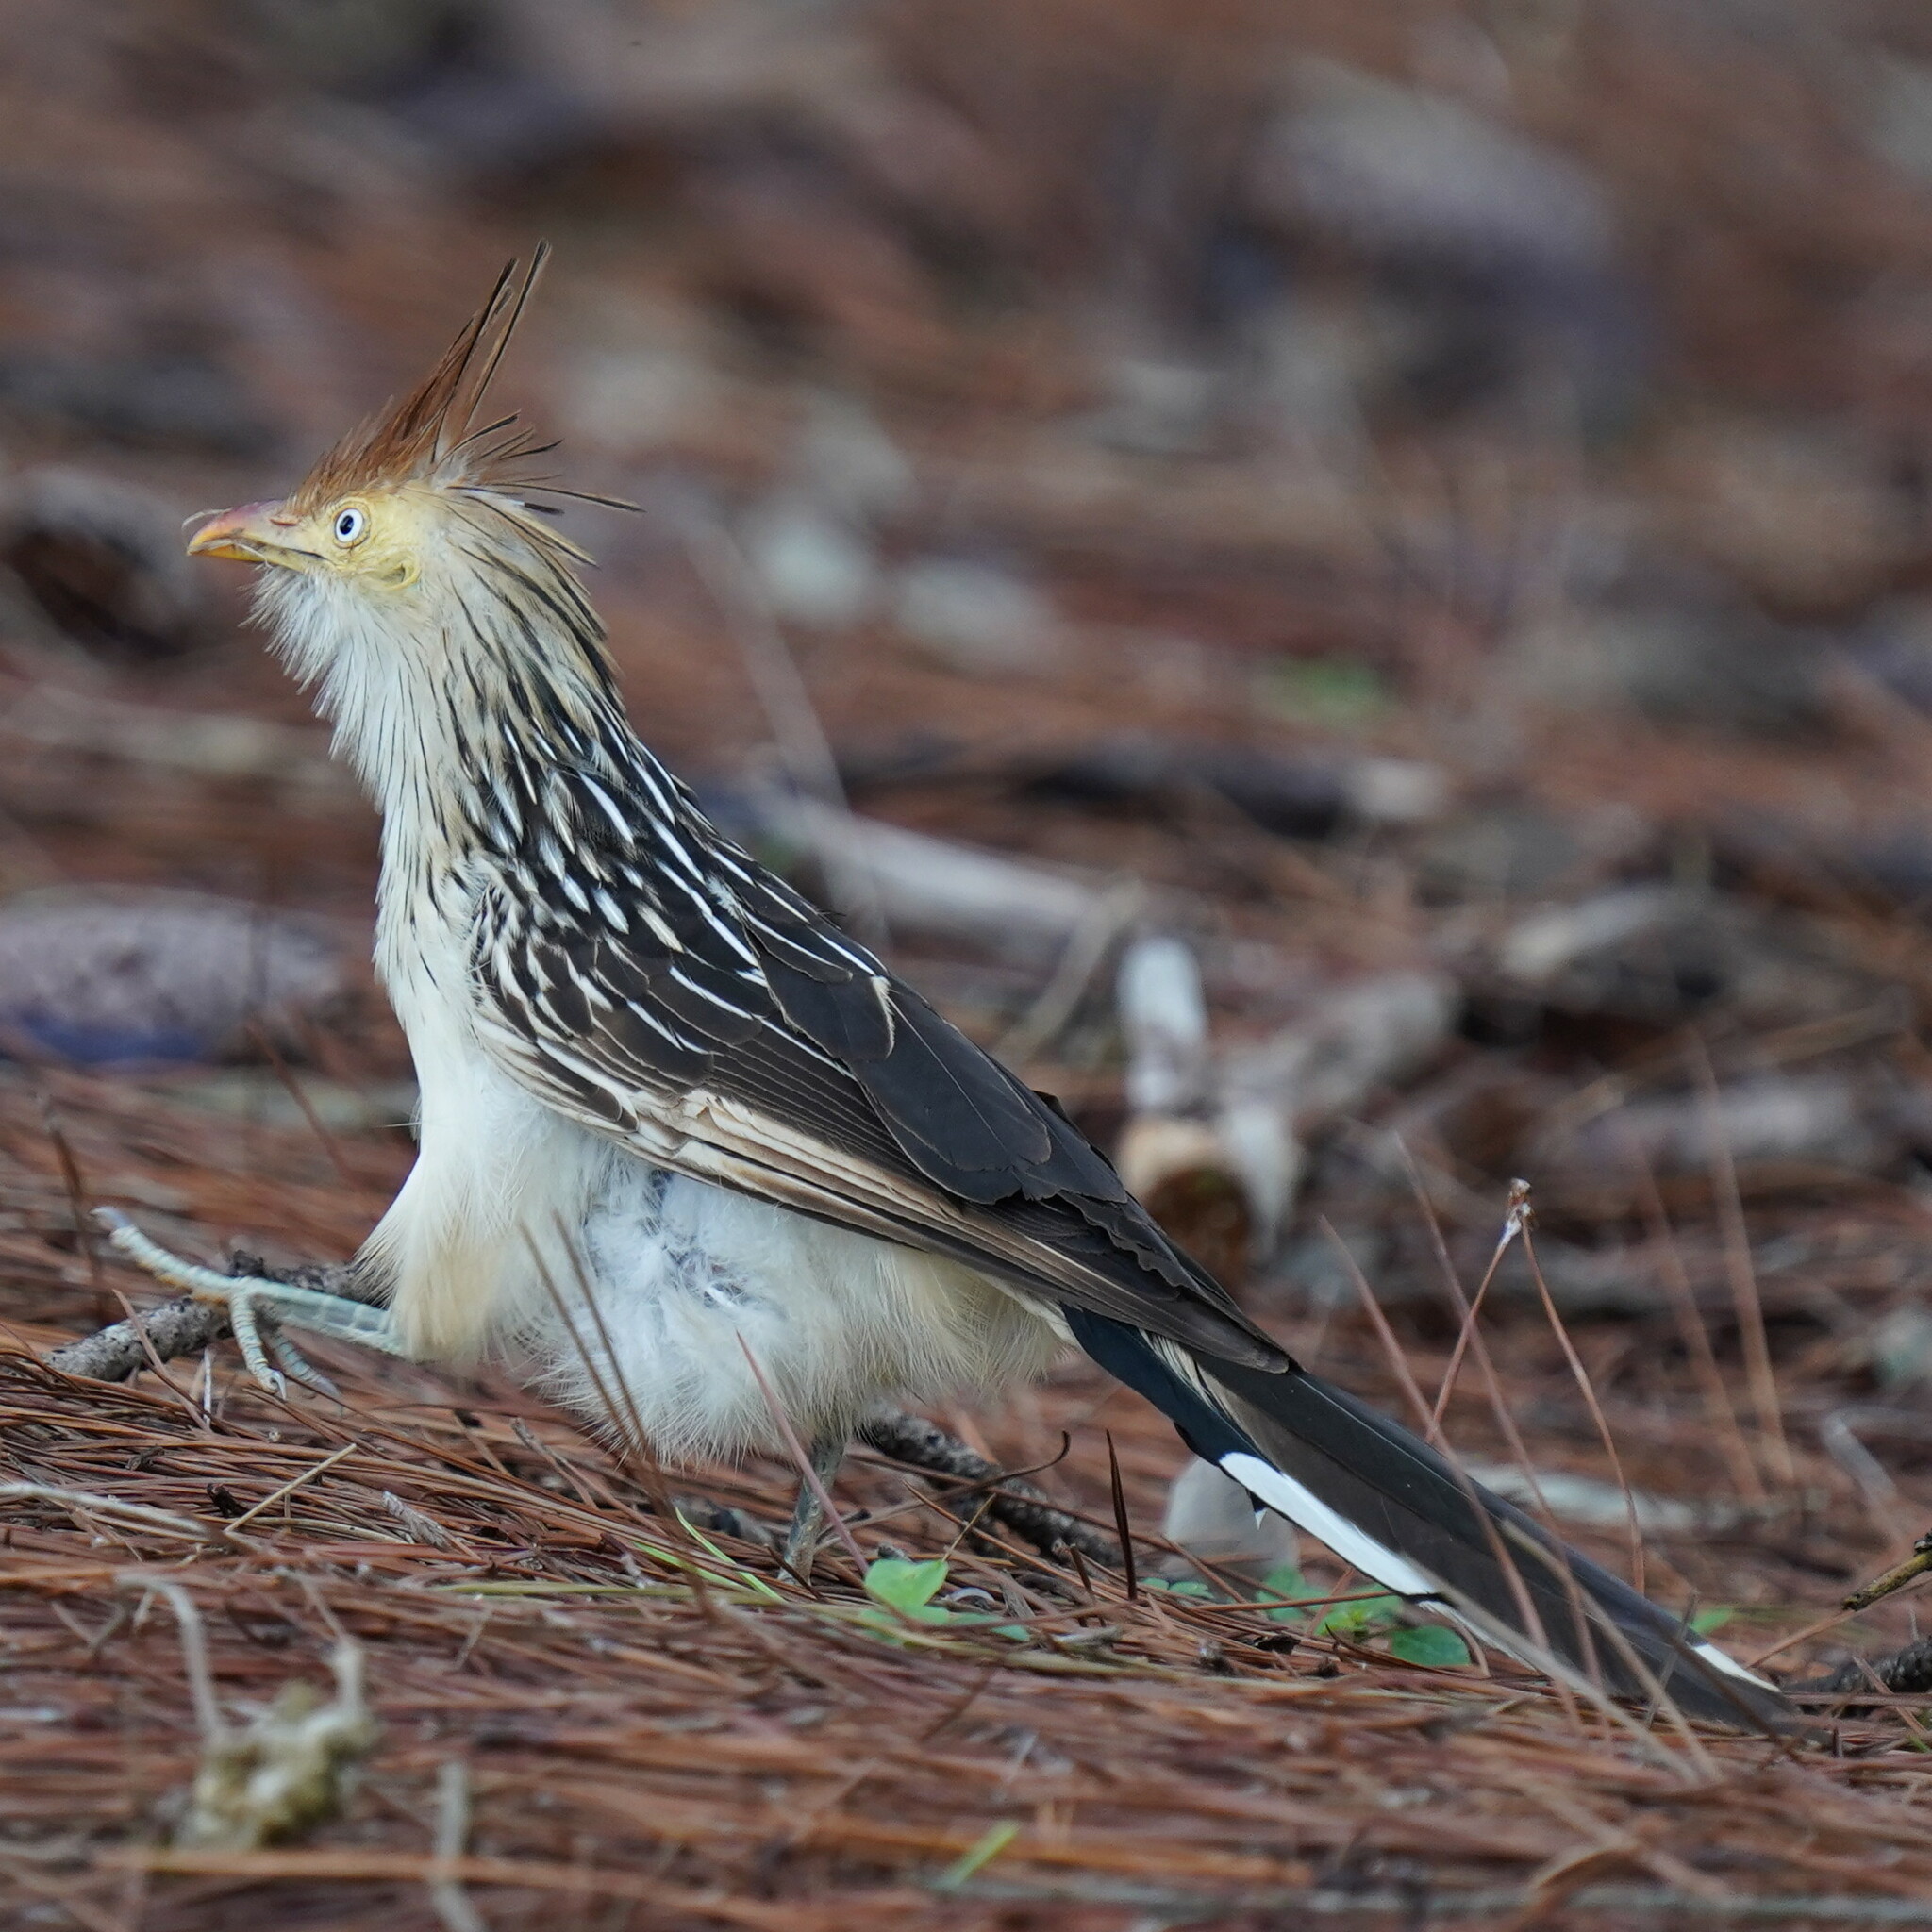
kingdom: Animalia
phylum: Chordata
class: Aves
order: Cuculiformes
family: Cuculidae
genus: Guira
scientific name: Guira guira
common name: Guira cuckoo
